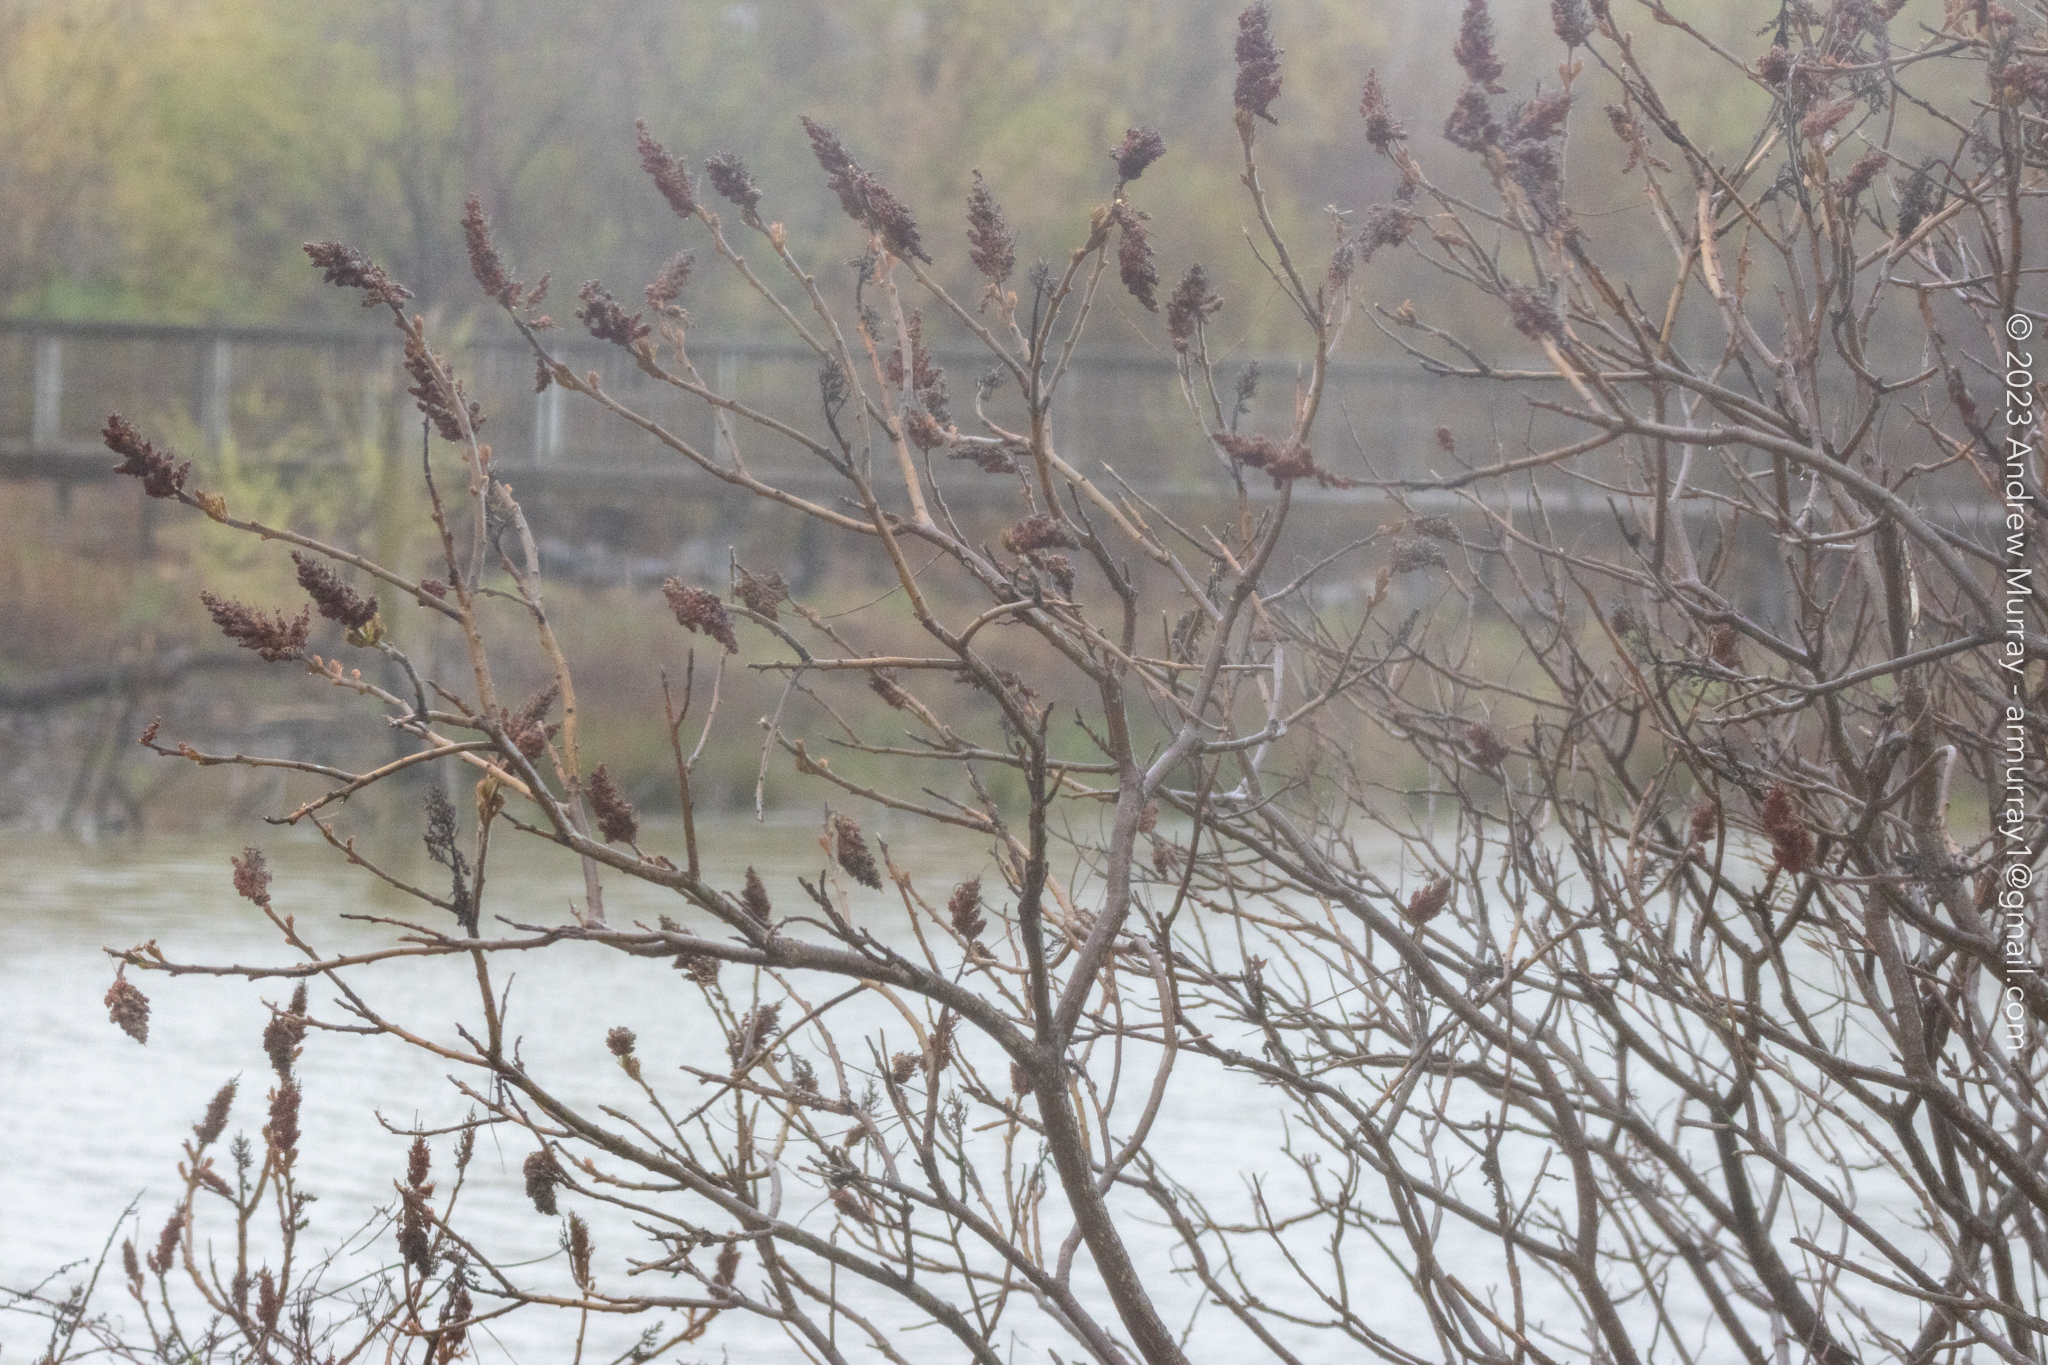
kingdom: Plantae
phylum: Tracheophyta
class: Magnoliopsida
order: Sapindales
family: Anacardiaceae
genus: Rhus
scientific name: Rhus typhina
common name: Staghorn sumac
